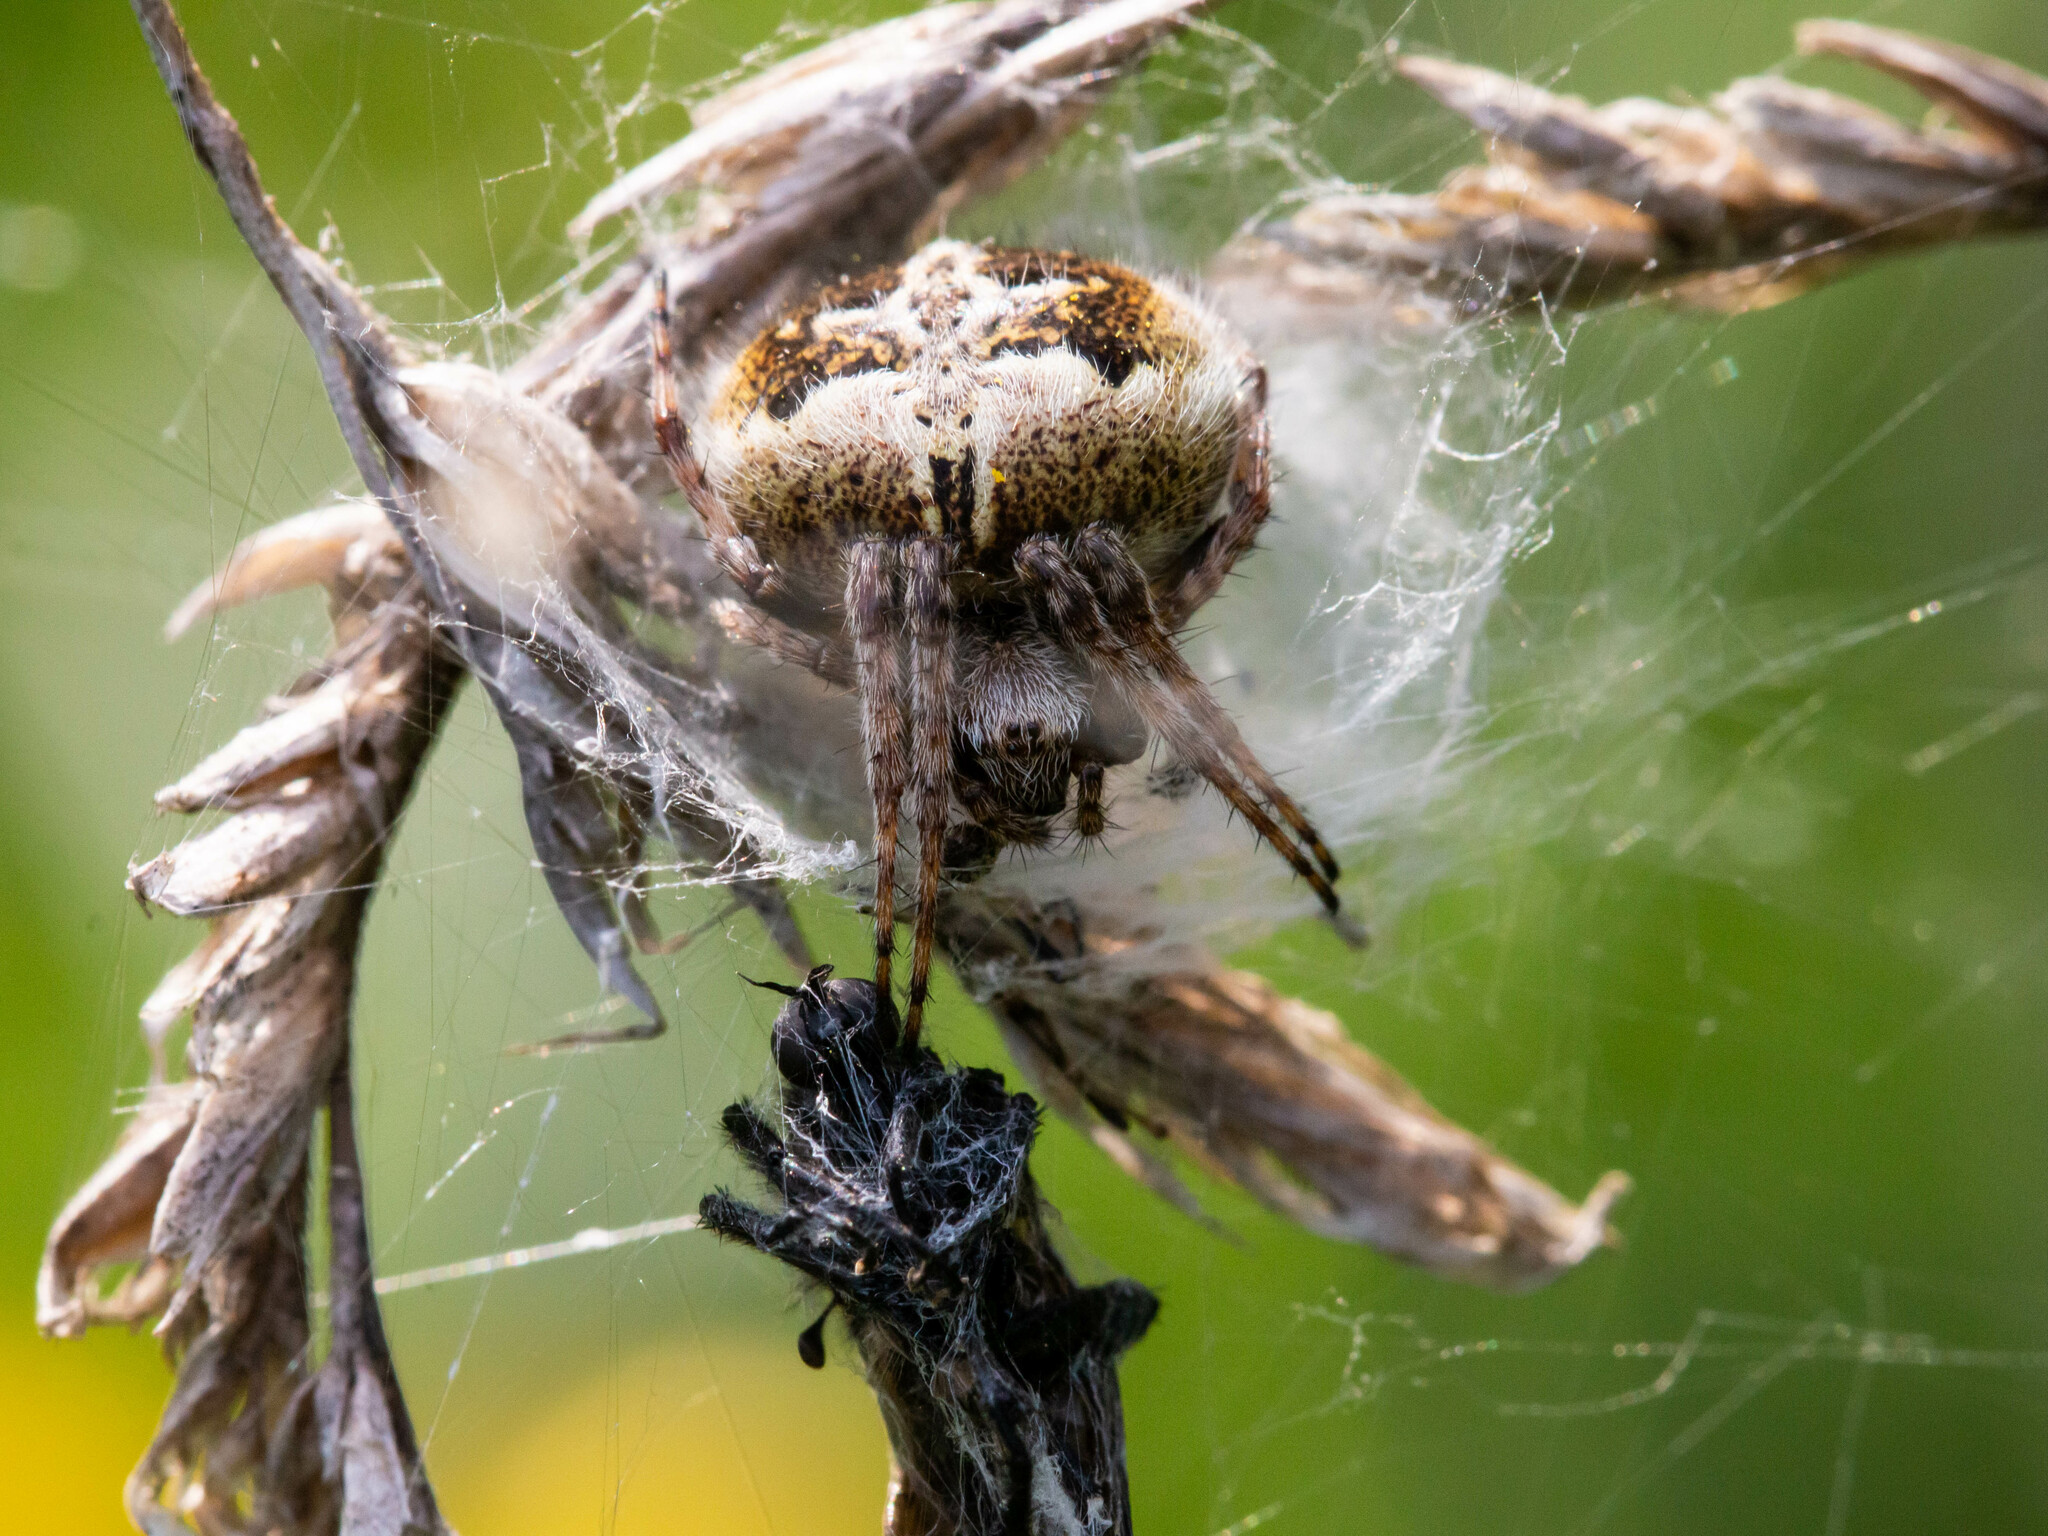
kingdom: Animalia
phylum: Arthropoda
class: Arachnida
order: Araneae
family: Araneidae
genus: Agalenatea
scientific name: Agalenatea redii
